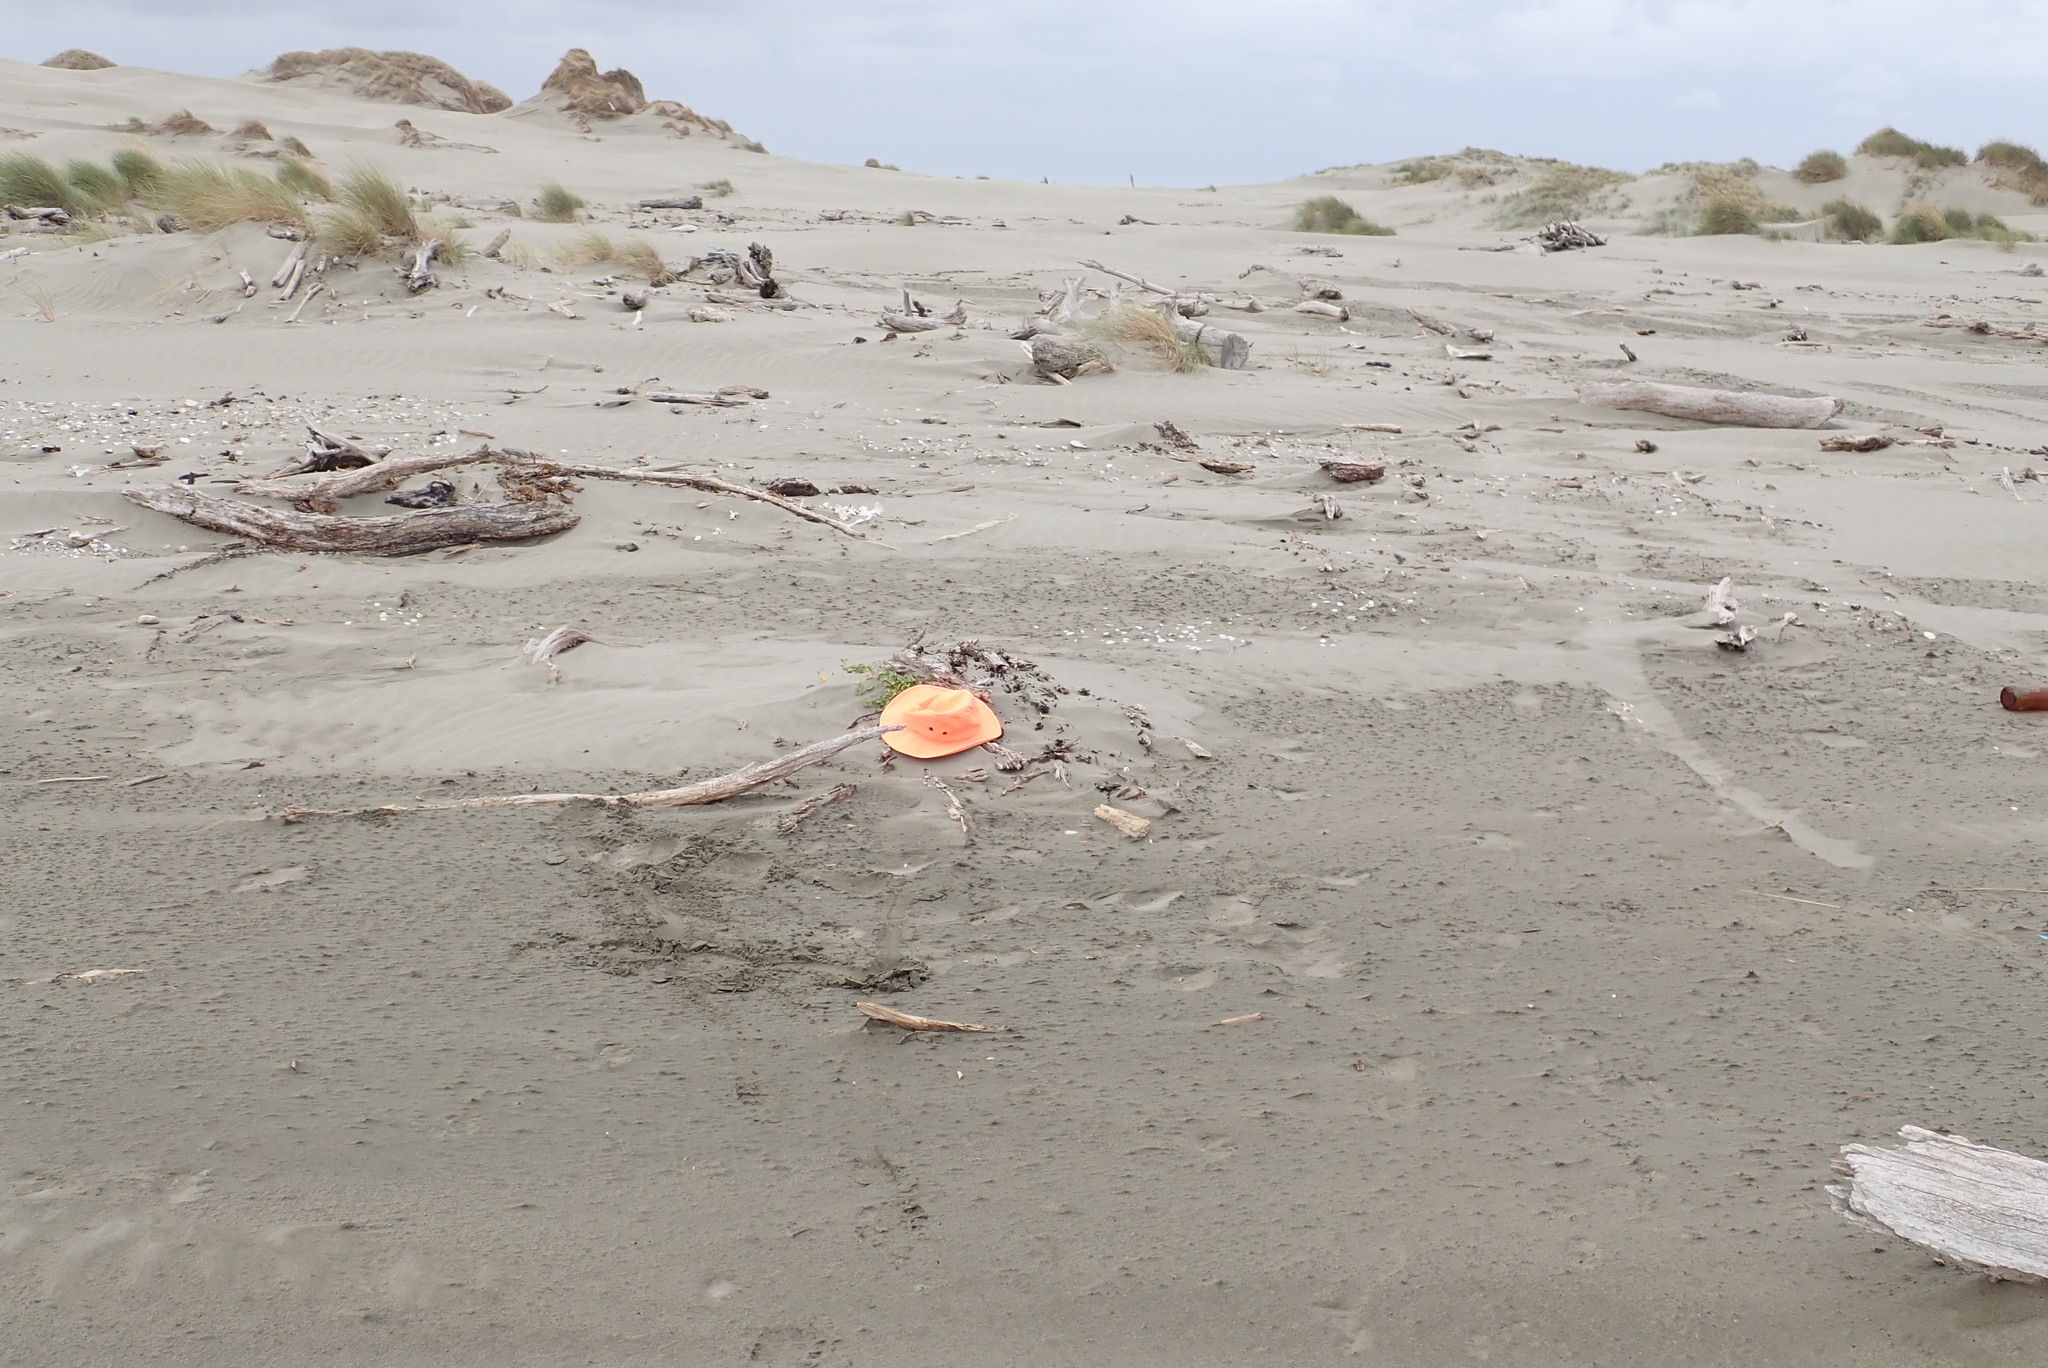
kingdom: Plantae
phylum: Tracheophyta
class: Magnoliopsida
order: Solanales
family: Convolvulaceae
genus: Calystegia
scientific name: Calystegia soldanella
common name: Sea bindweed
